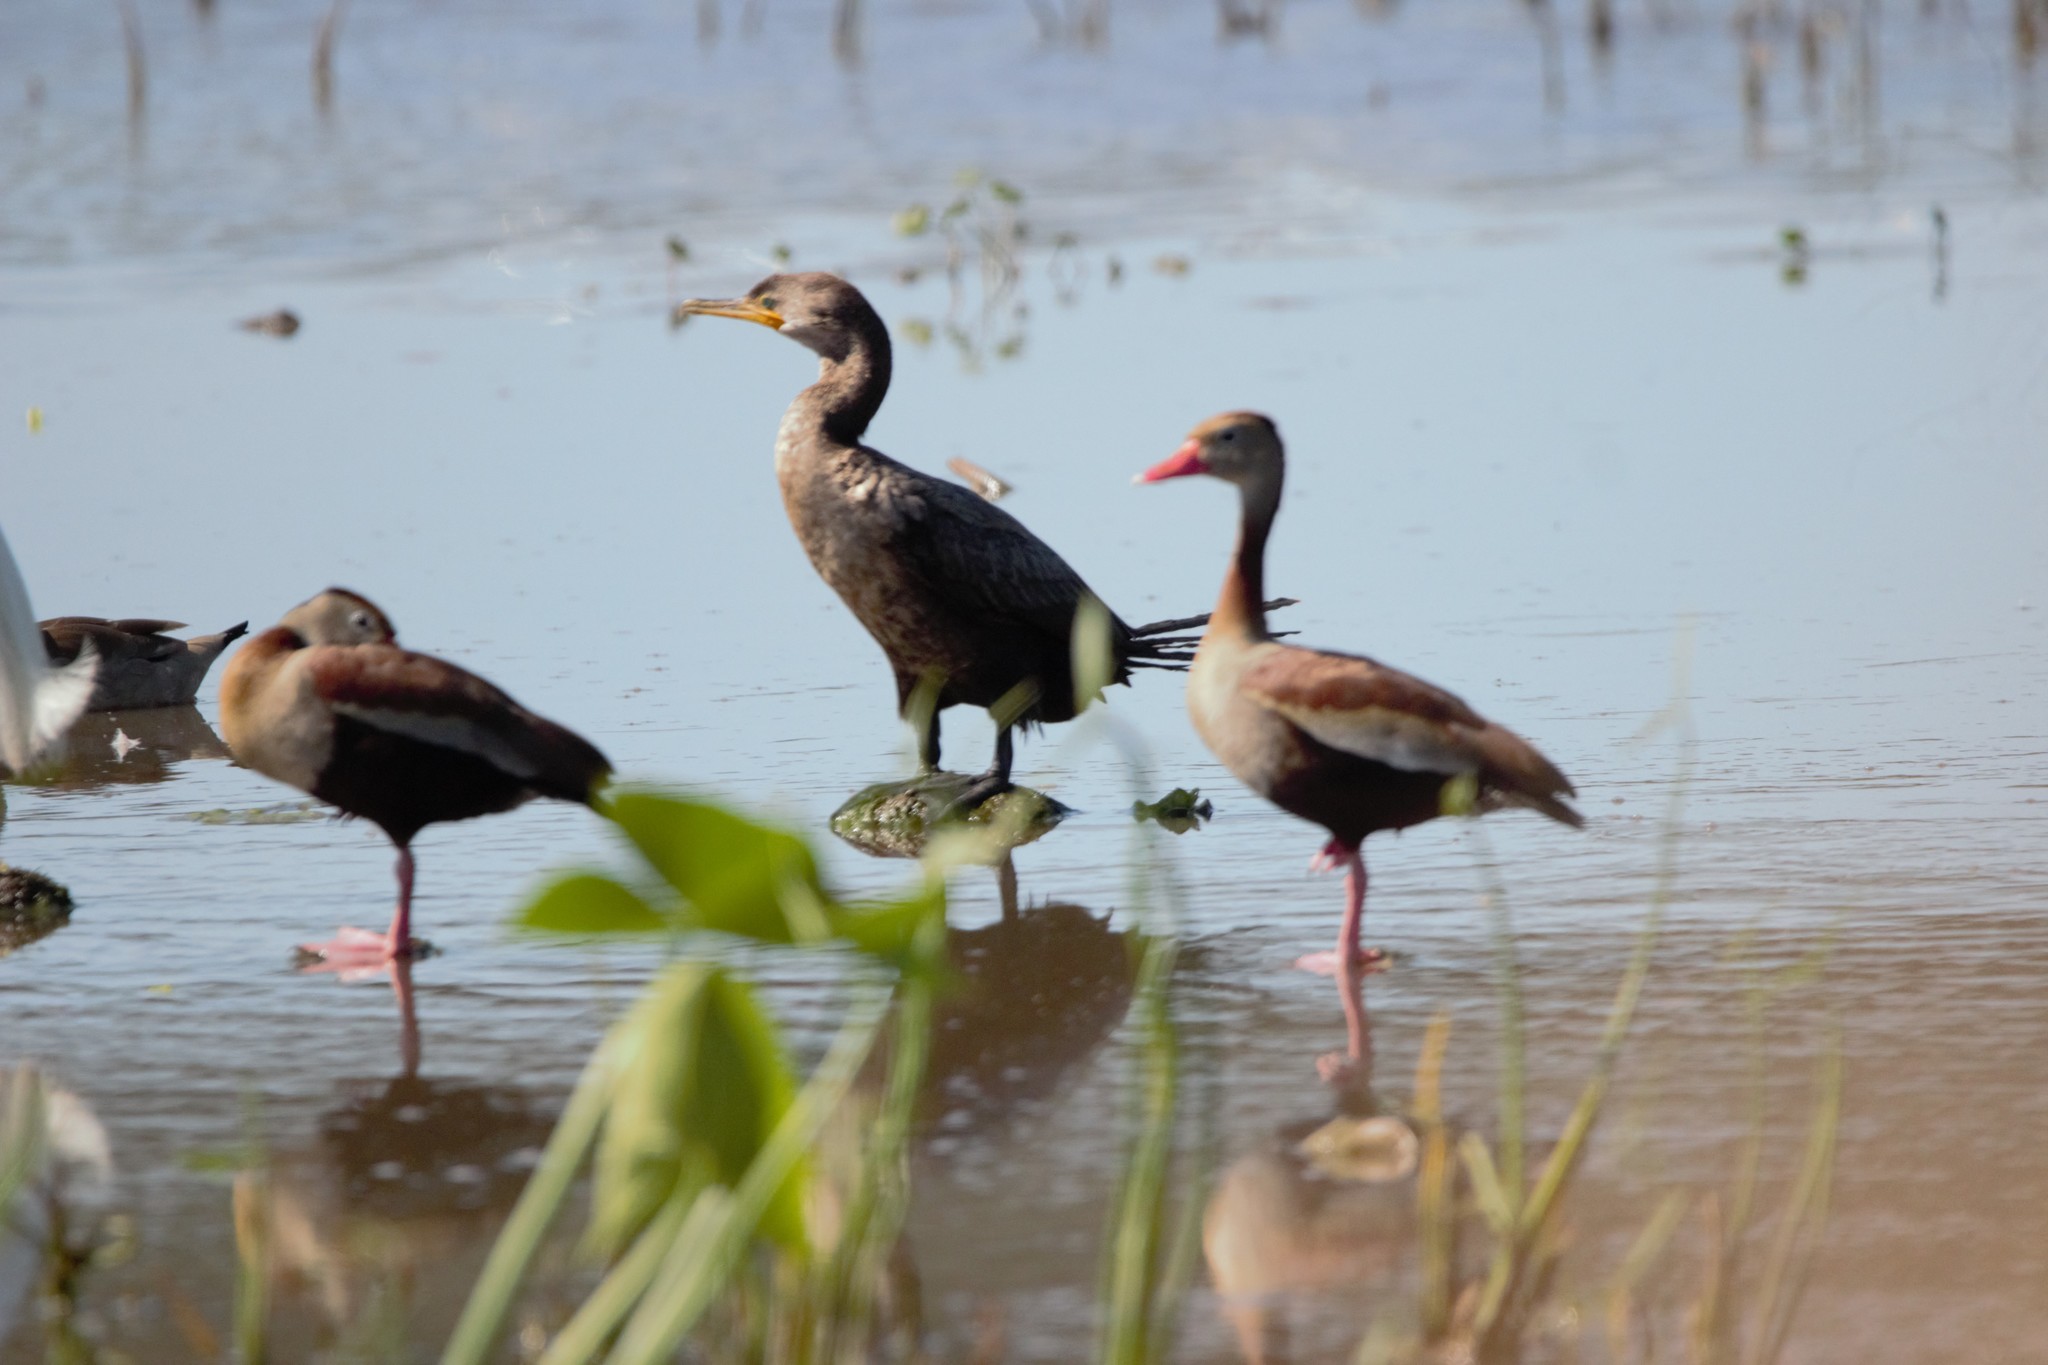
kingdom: Animalia
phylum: Chordata
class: Aves
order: Suliformes
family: Phalacrocoracidae
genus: Phalacrocorax
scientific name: Phalacrocorax brasilianus
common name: Neotropic cormorant
